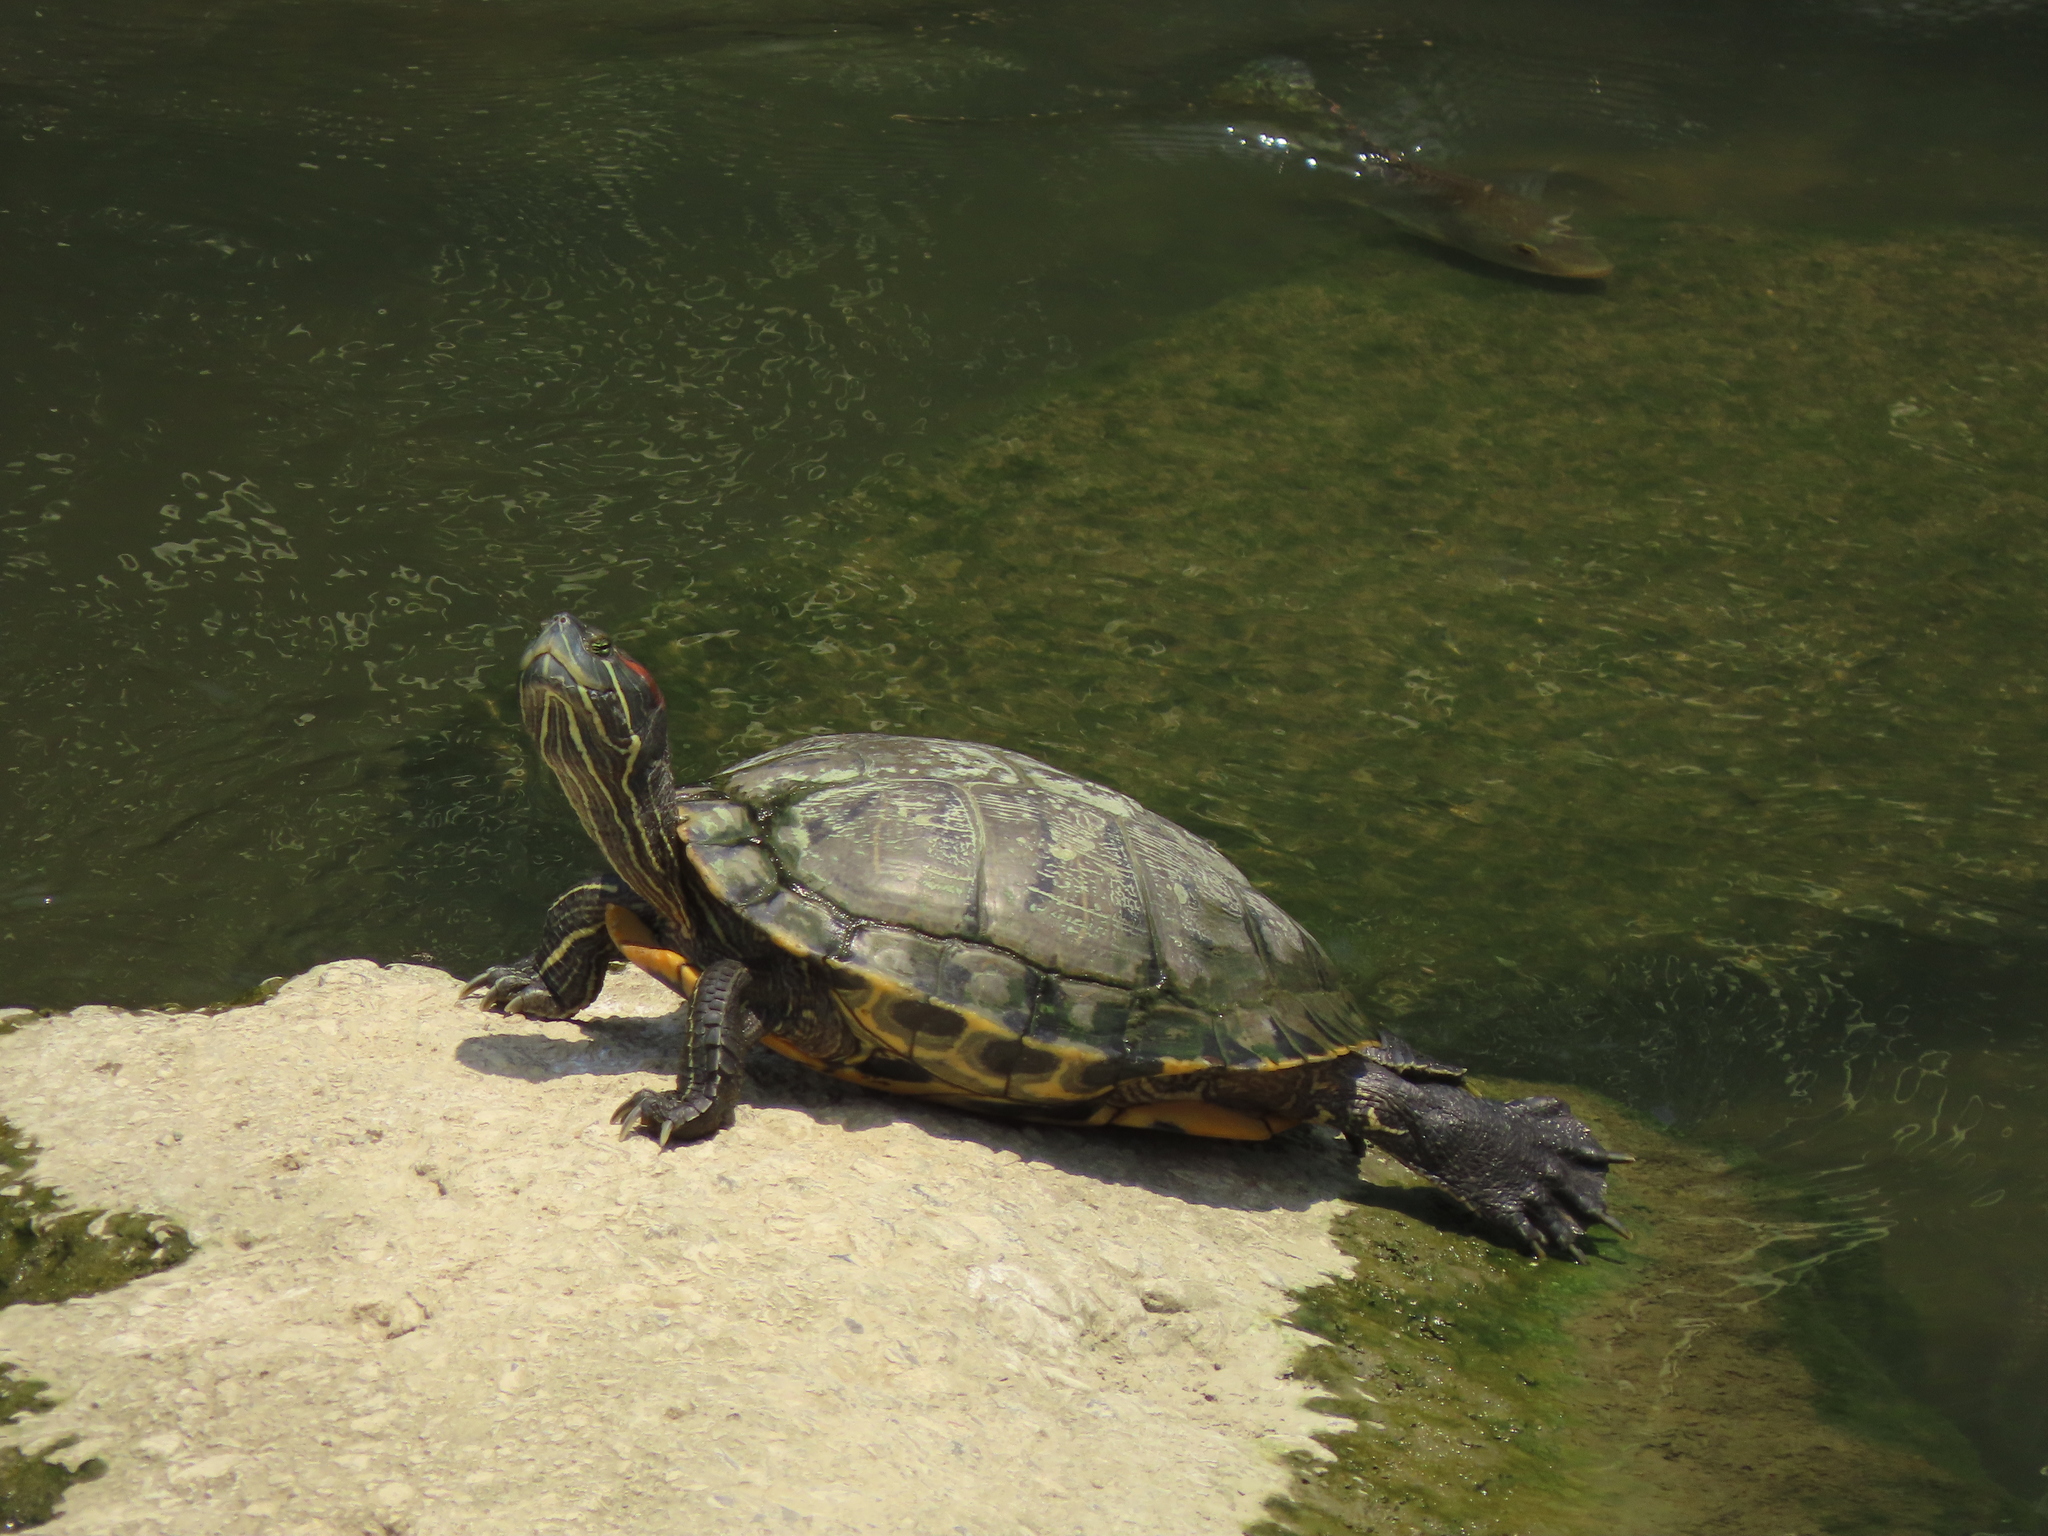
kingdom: Animalia
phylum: Chordata
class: Testudines
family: Emydidae
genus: Trachemys
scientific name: Trachemys scripta
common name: Slider
